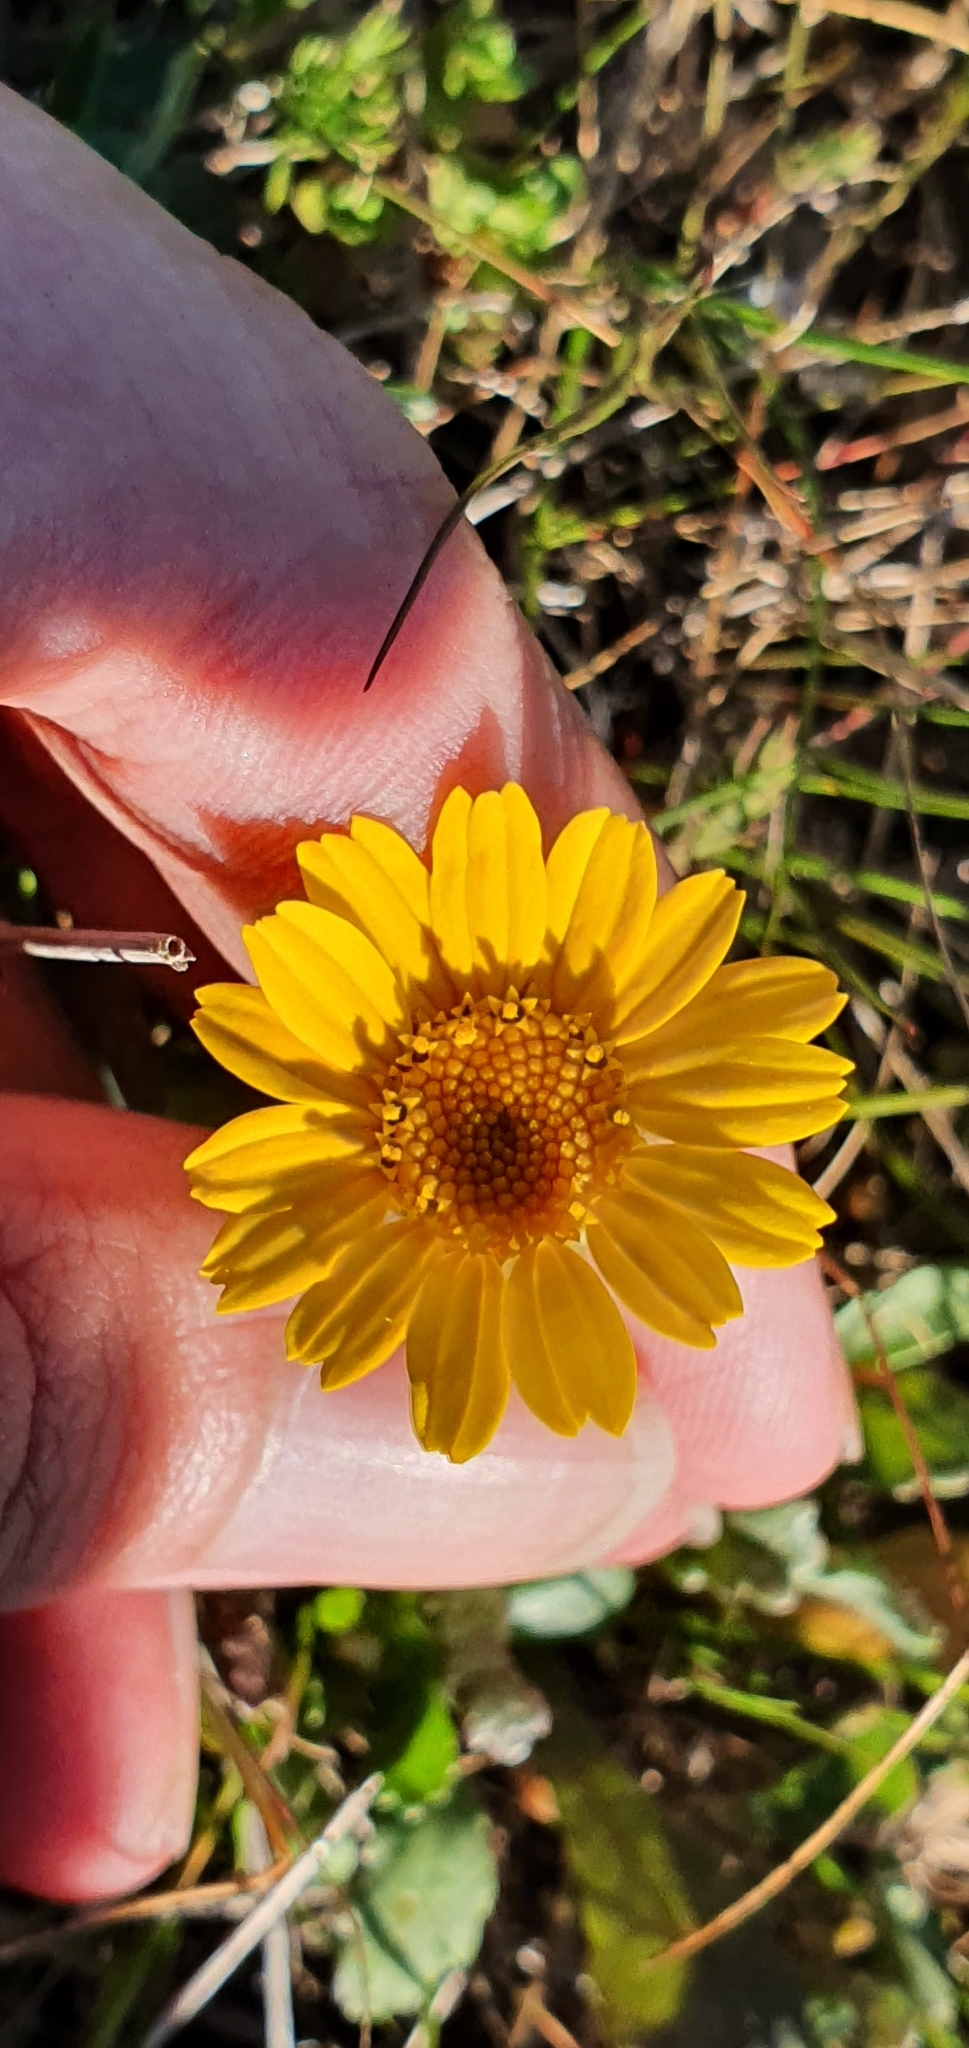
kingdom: Plantae
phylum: Tracheophyta
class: Magnoliopsida
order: Asterales
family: Asteraceae
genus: Coleostephus
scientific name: Coleostephus myconis
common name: Mediterranean marigold
